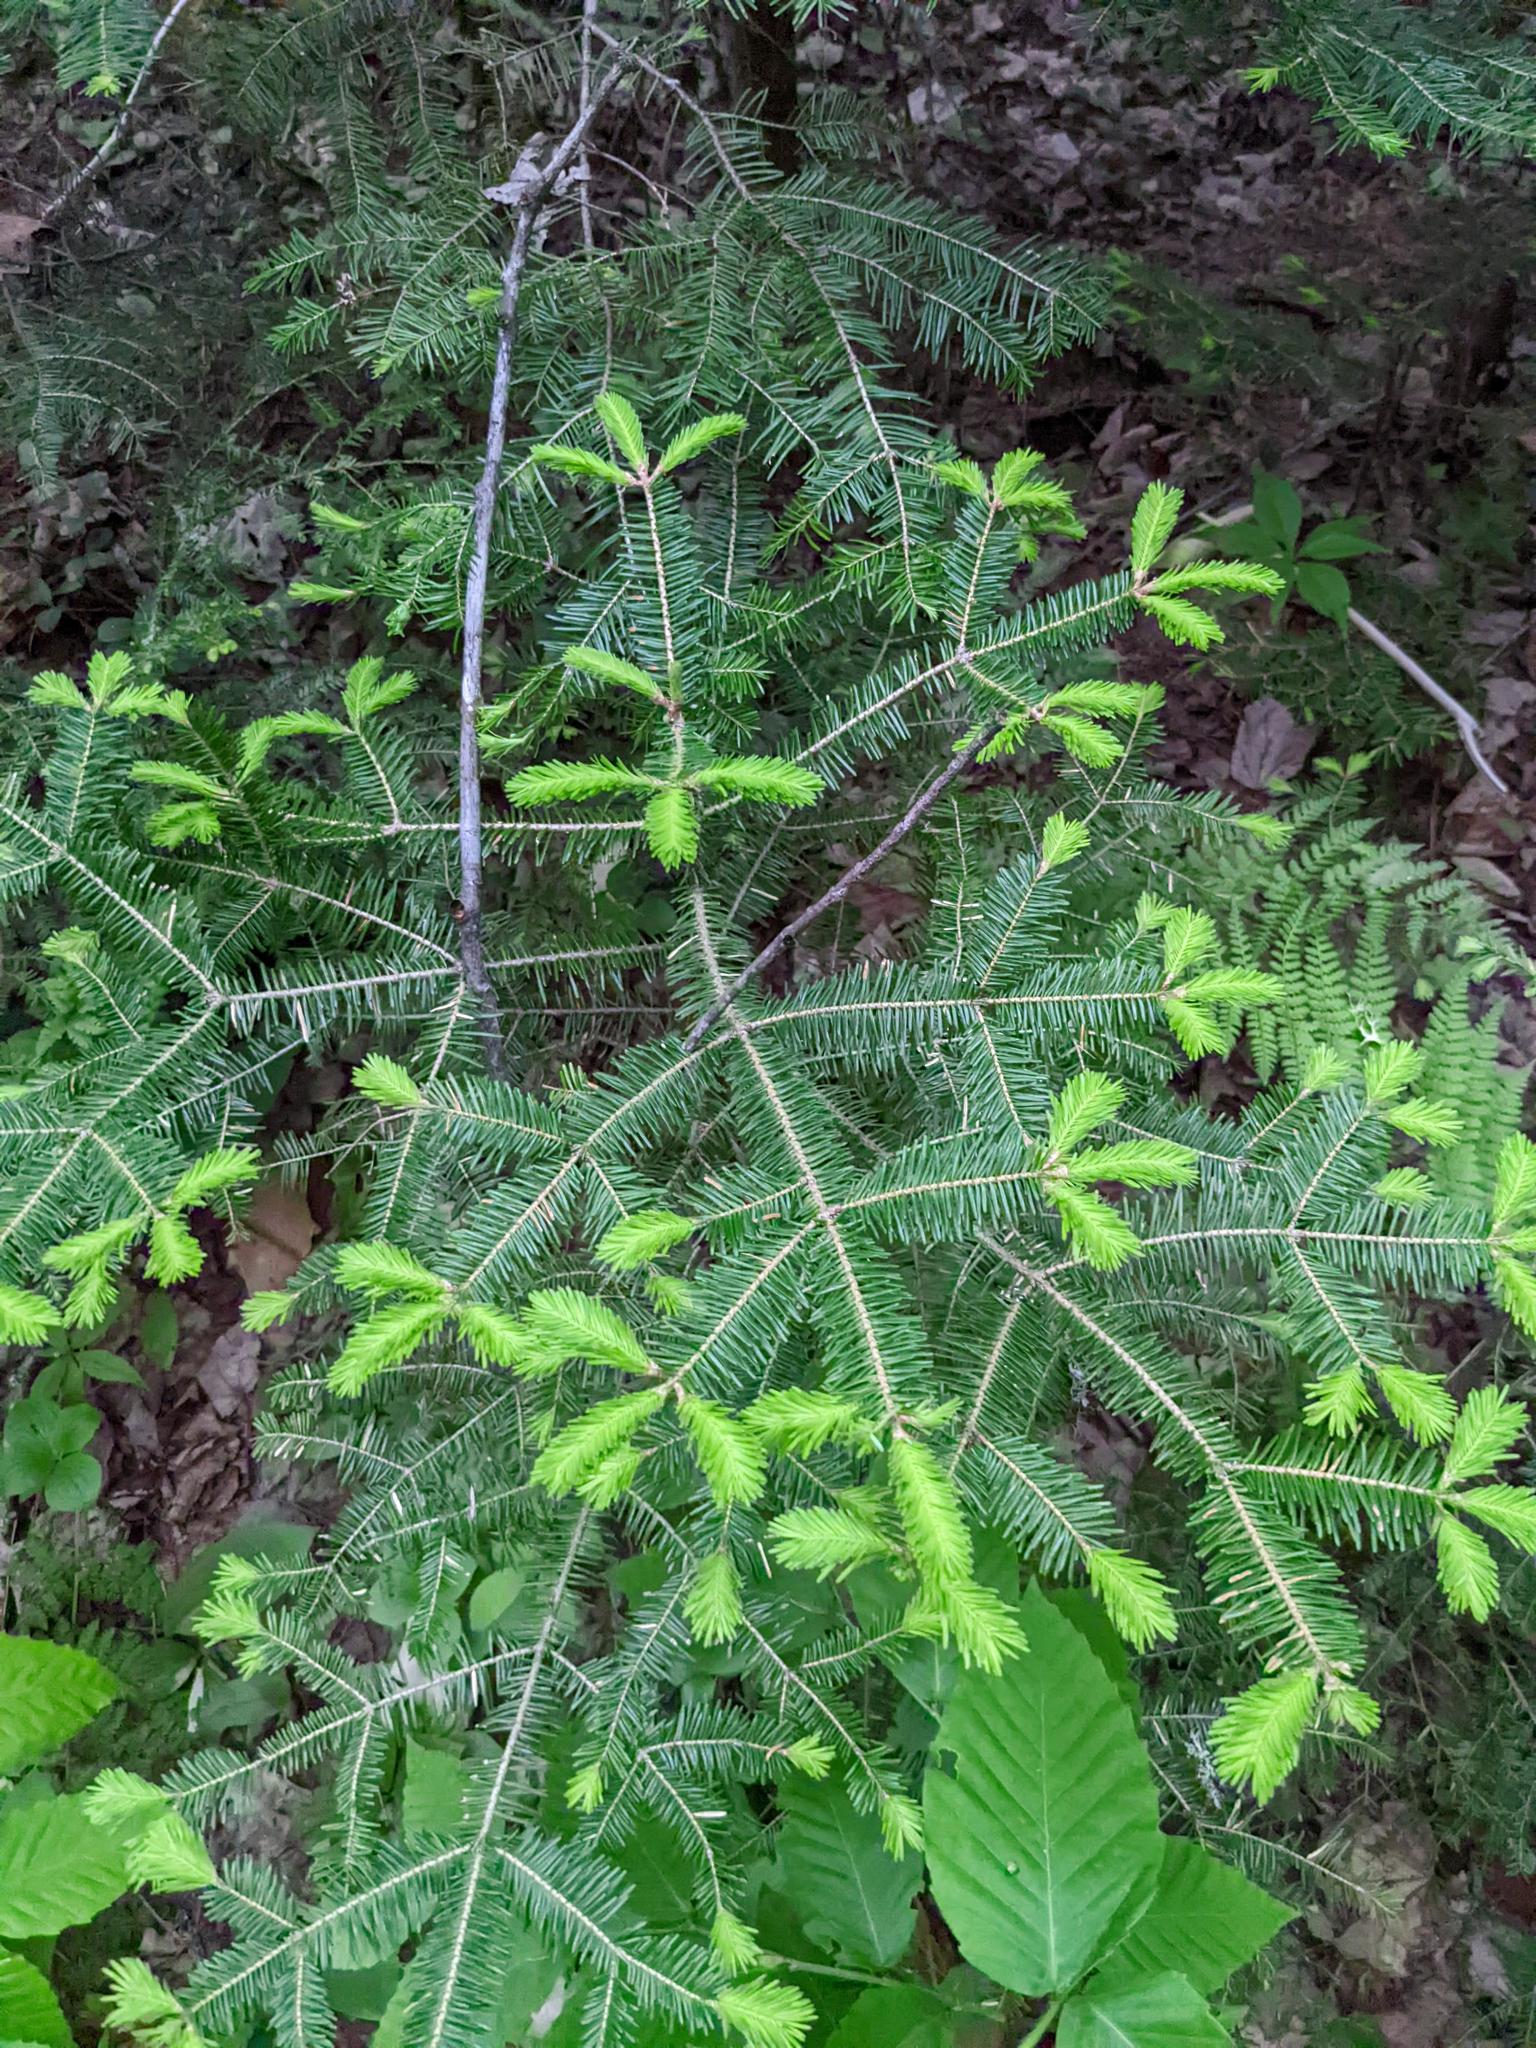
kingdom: Plantae
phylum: Tracheophyta
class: Pinopsida
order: Pinales
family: Pinaceae
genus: Abies
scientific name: Abies balsamea
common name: Balsam fir
